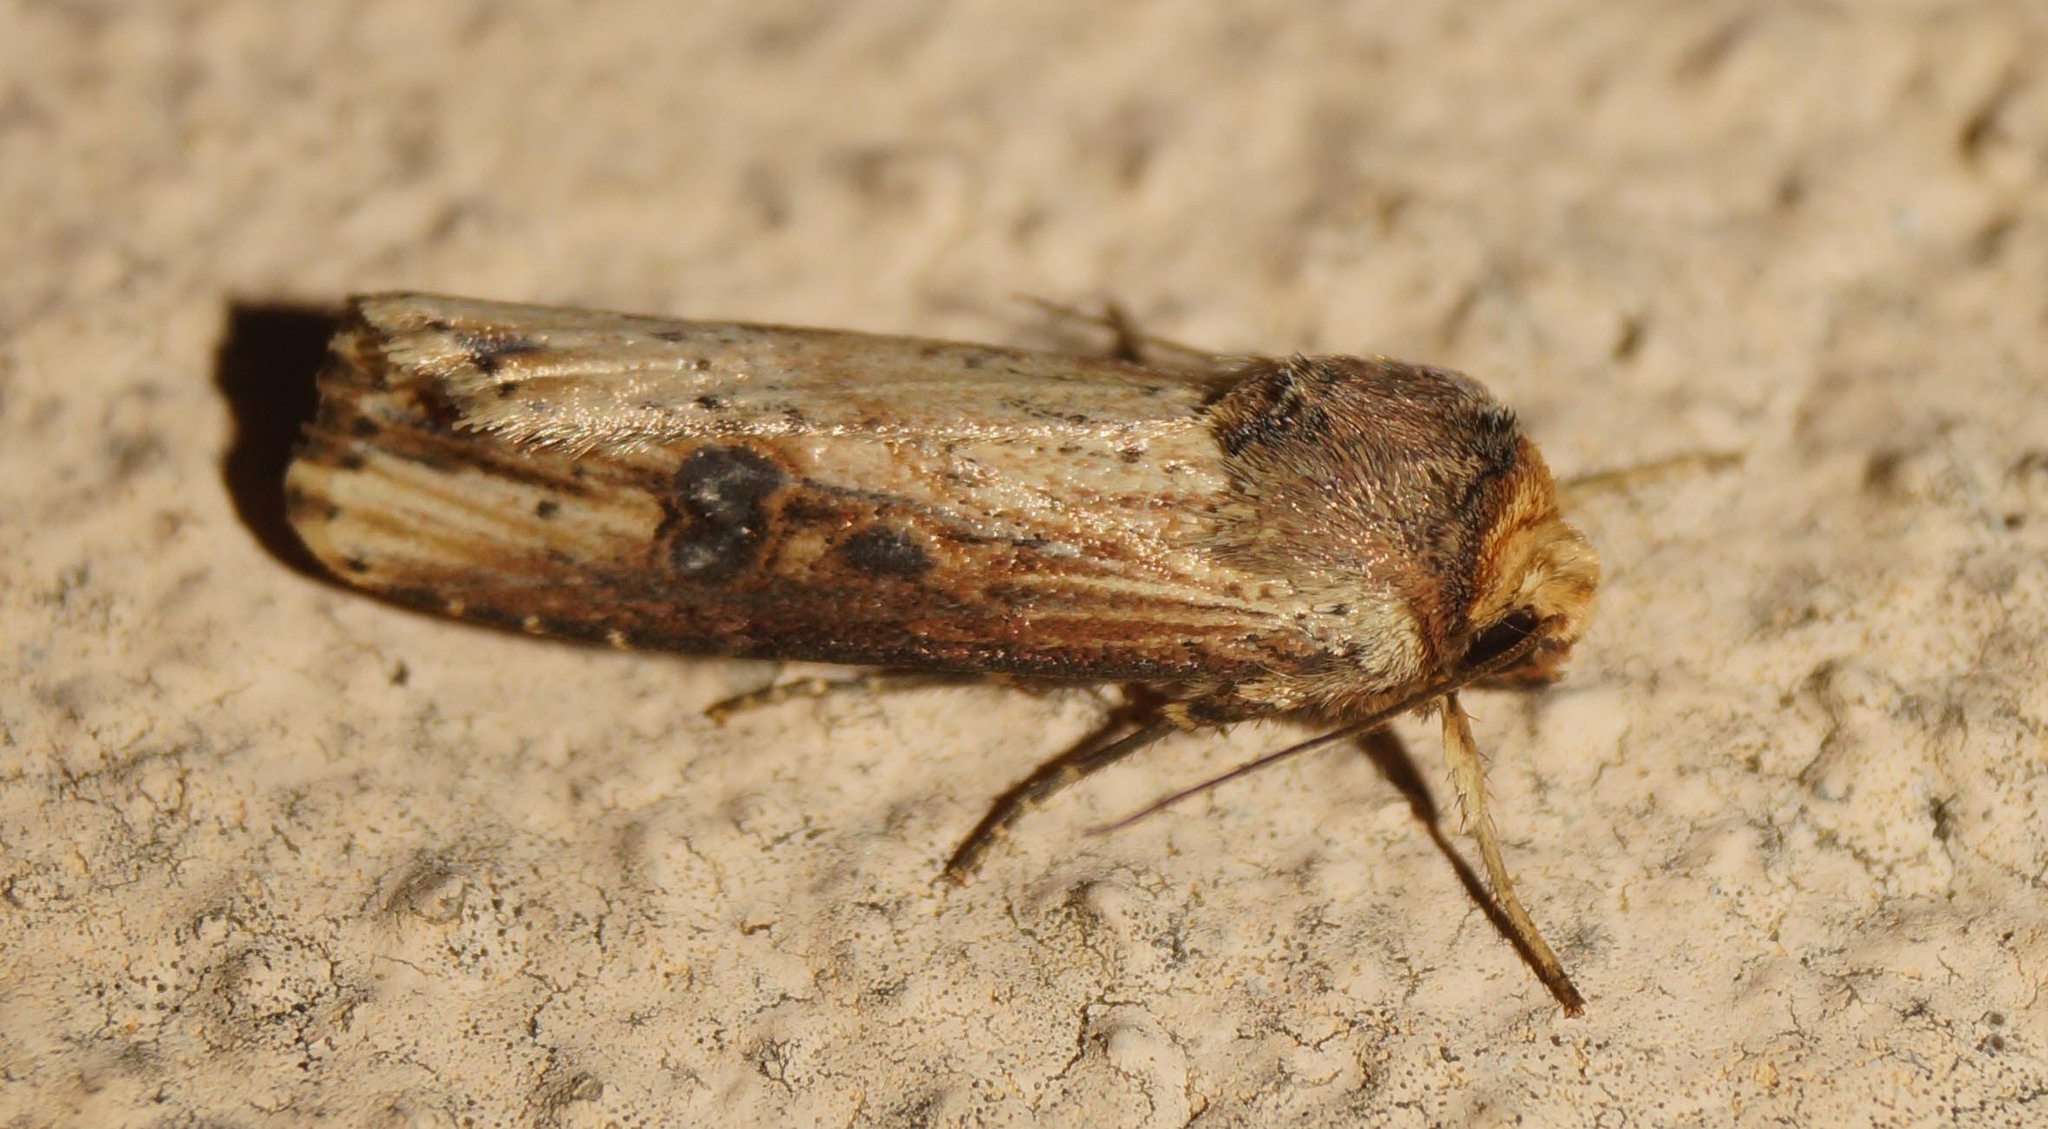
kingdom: Animalia
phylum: Arthropoda
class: Insecta
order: Lepidoptera
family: Noctuidae
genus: Axylia
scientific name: Axylia putris
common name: Flame
